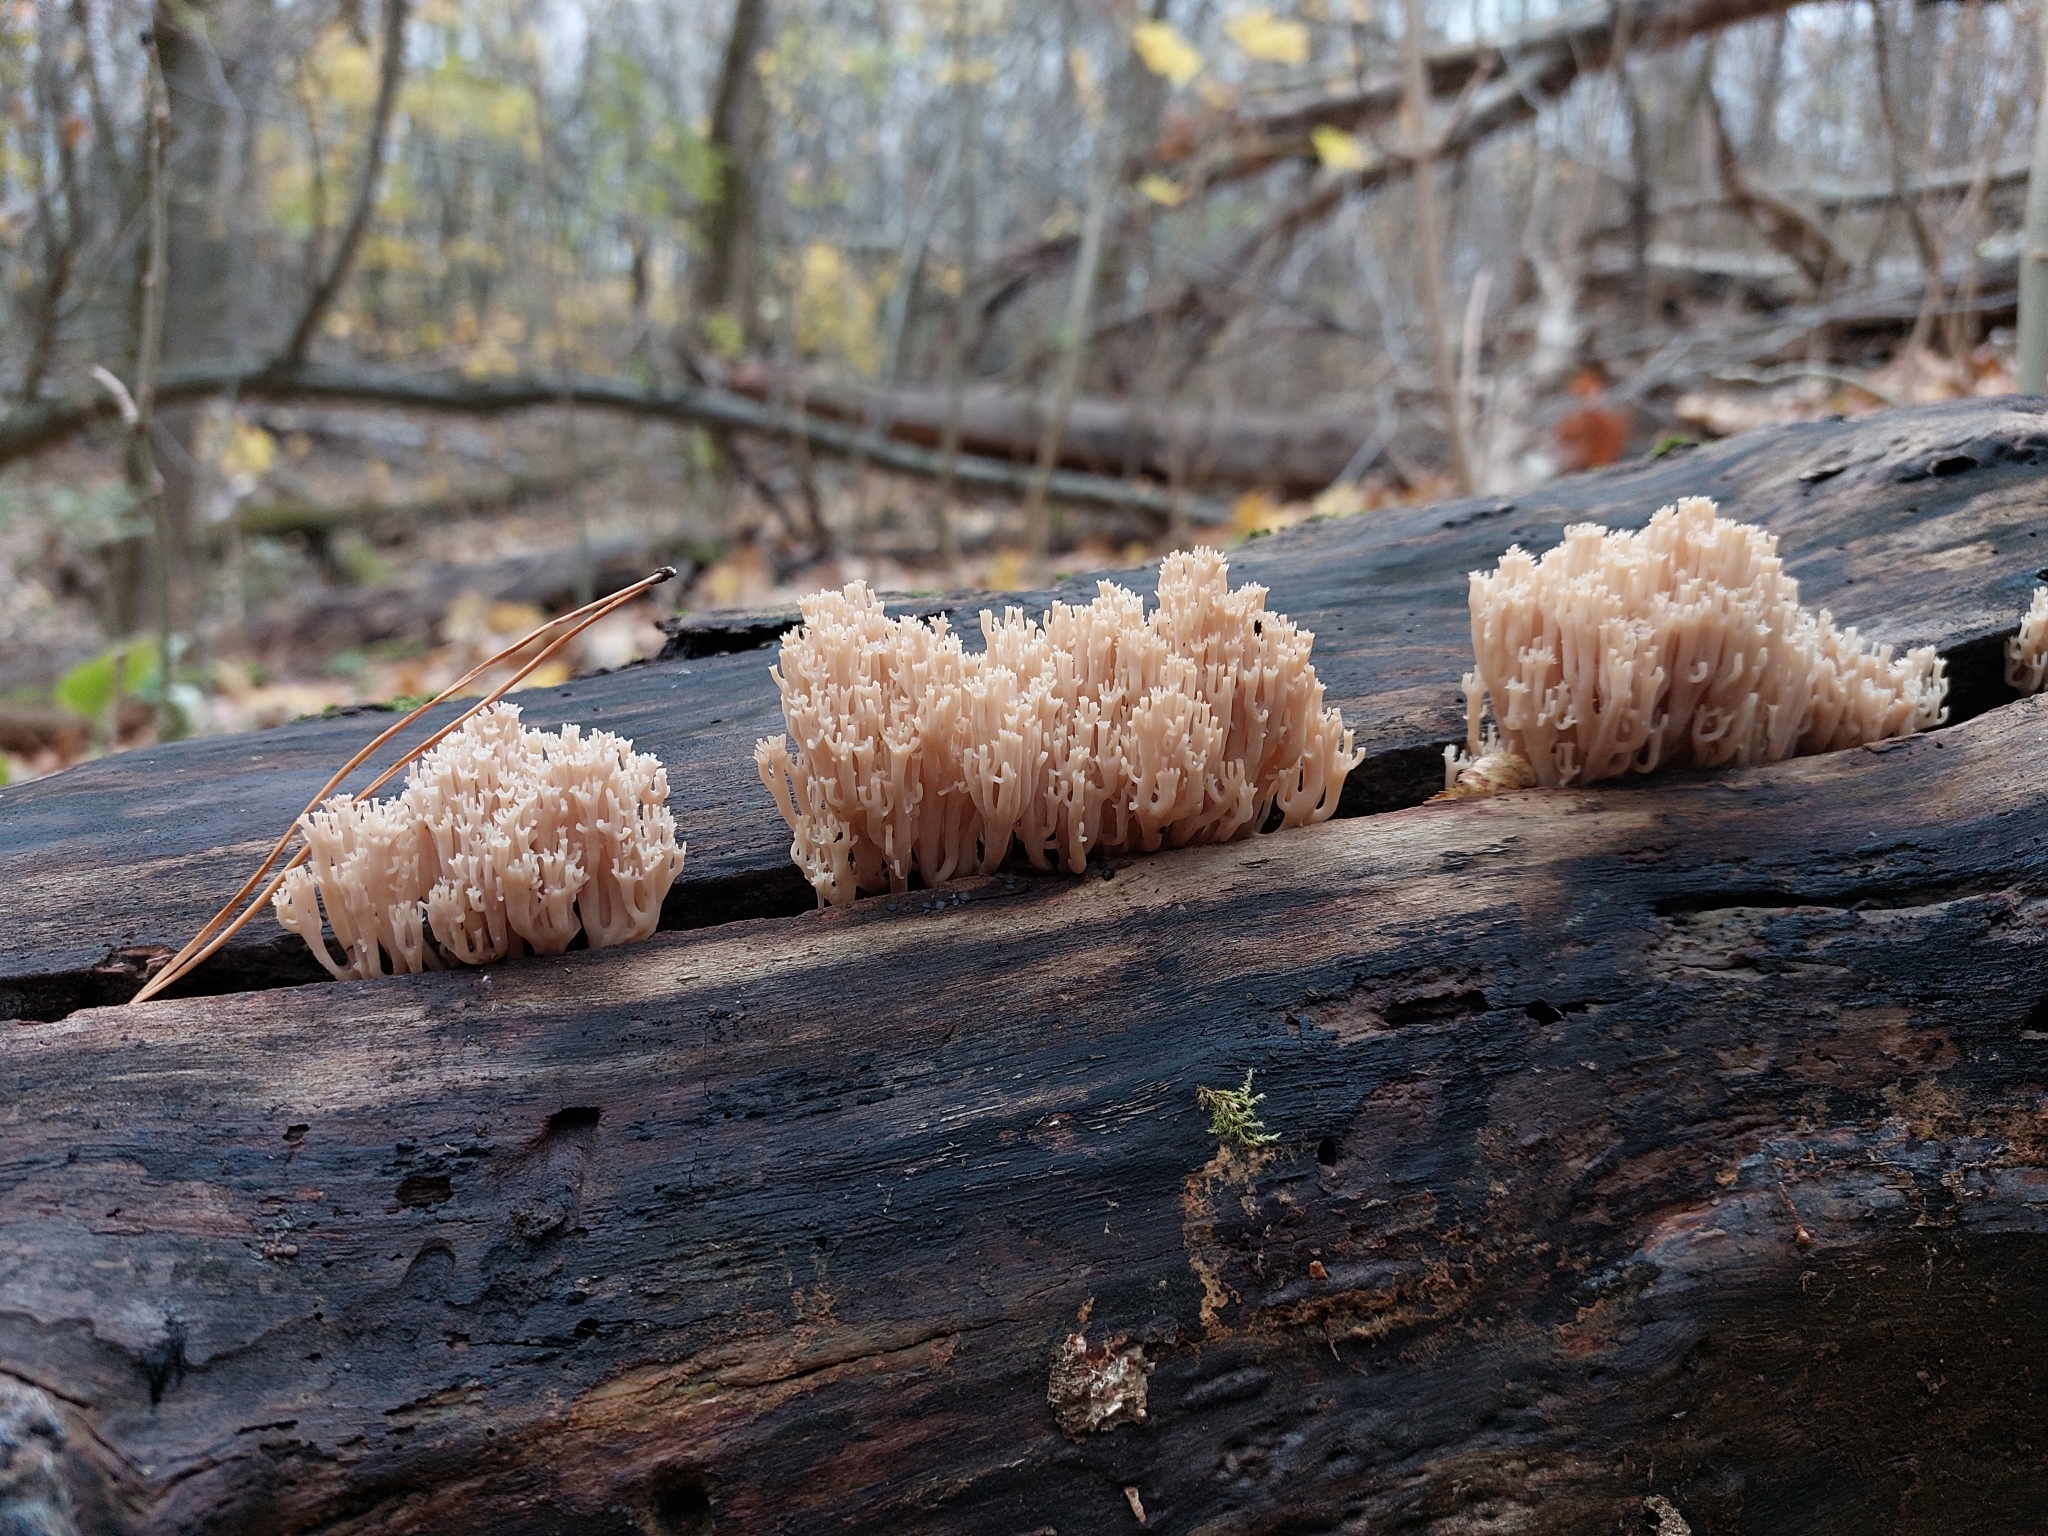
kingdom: Fungi
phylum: Basidiomycota
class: Agaricomycetes
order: Russulales
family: Auriscalpiaceae
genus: Artomyces
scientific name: Artomyces pyxidatus
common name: Crown-tipped coral fungus
